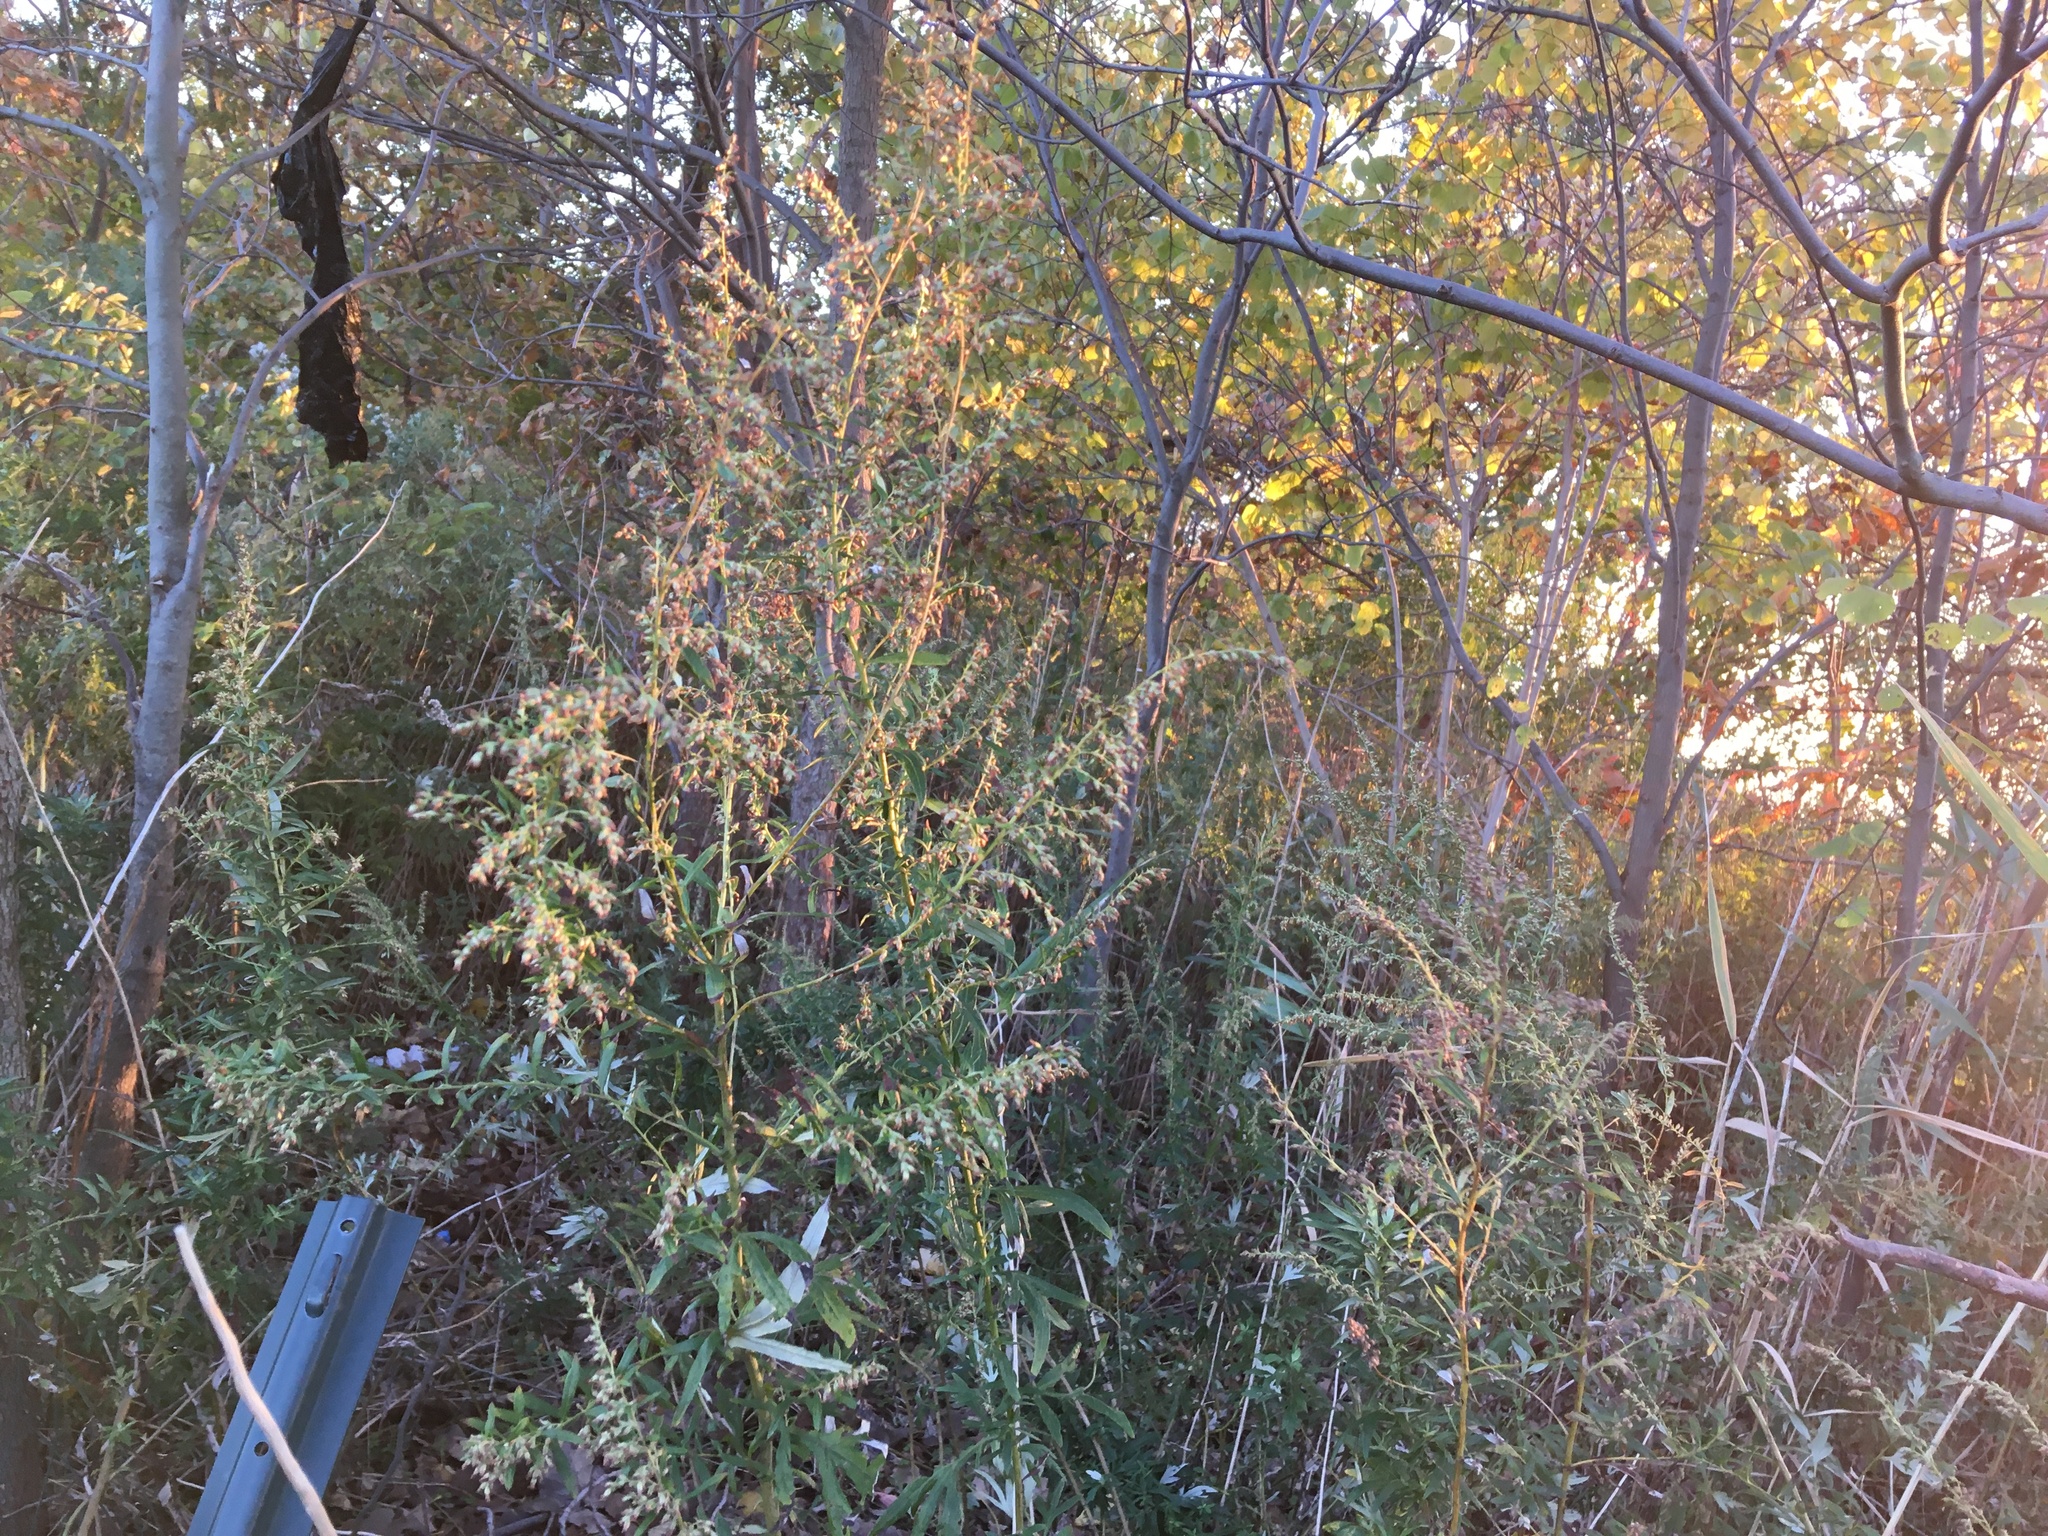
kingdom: Plantae
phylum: Tracheophyta
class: Magnoliopsida
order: Asterales
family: Asteraceae
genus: Artemisia
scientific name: Artemisia vulgaris
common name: Mugwort
